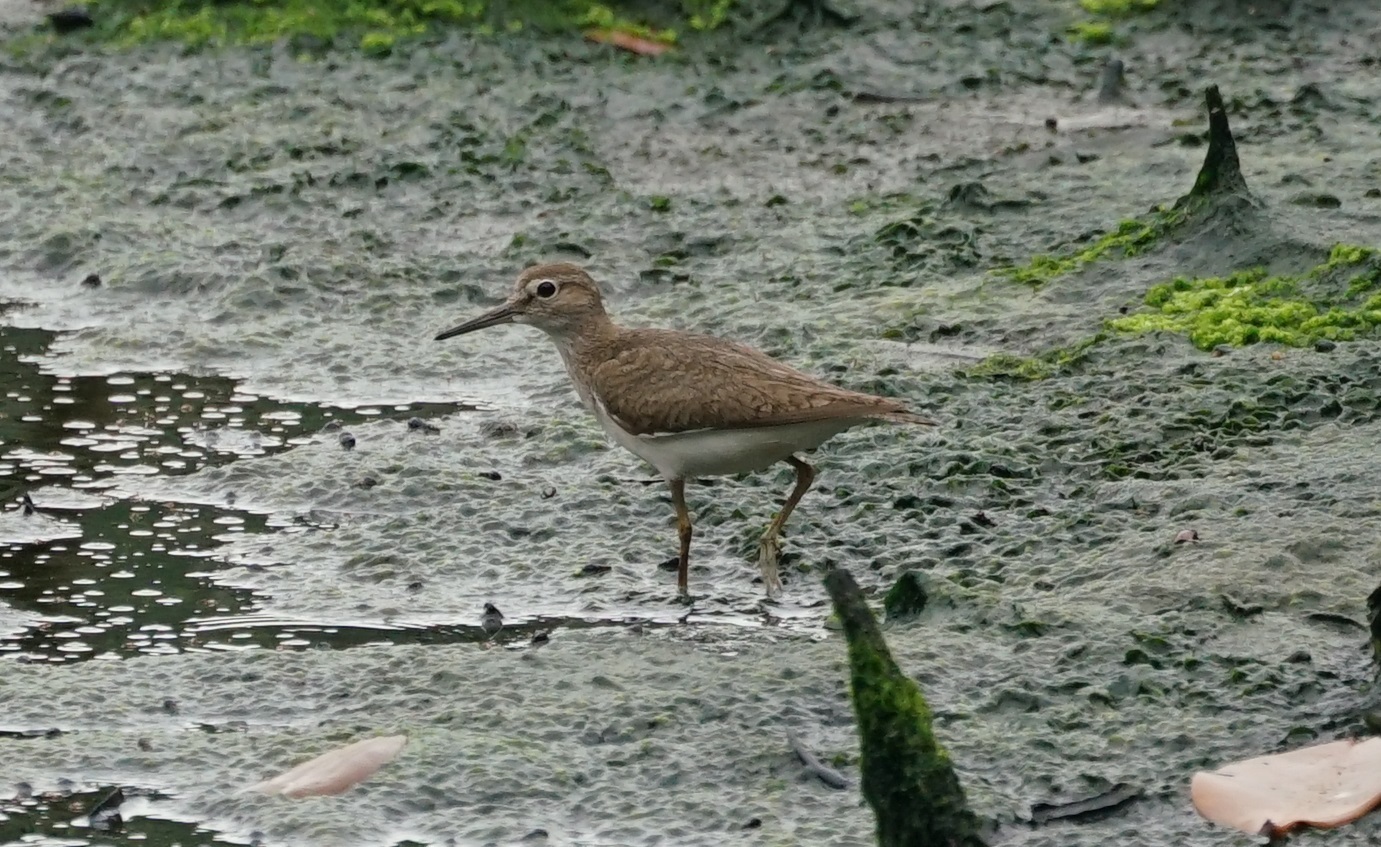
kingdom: Animalia
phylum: Chordata
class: Aves
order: Charadriiformes
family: Scolopacidae
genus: Actitis
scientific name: Actitis hypoleucos
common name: Common sandpiper
